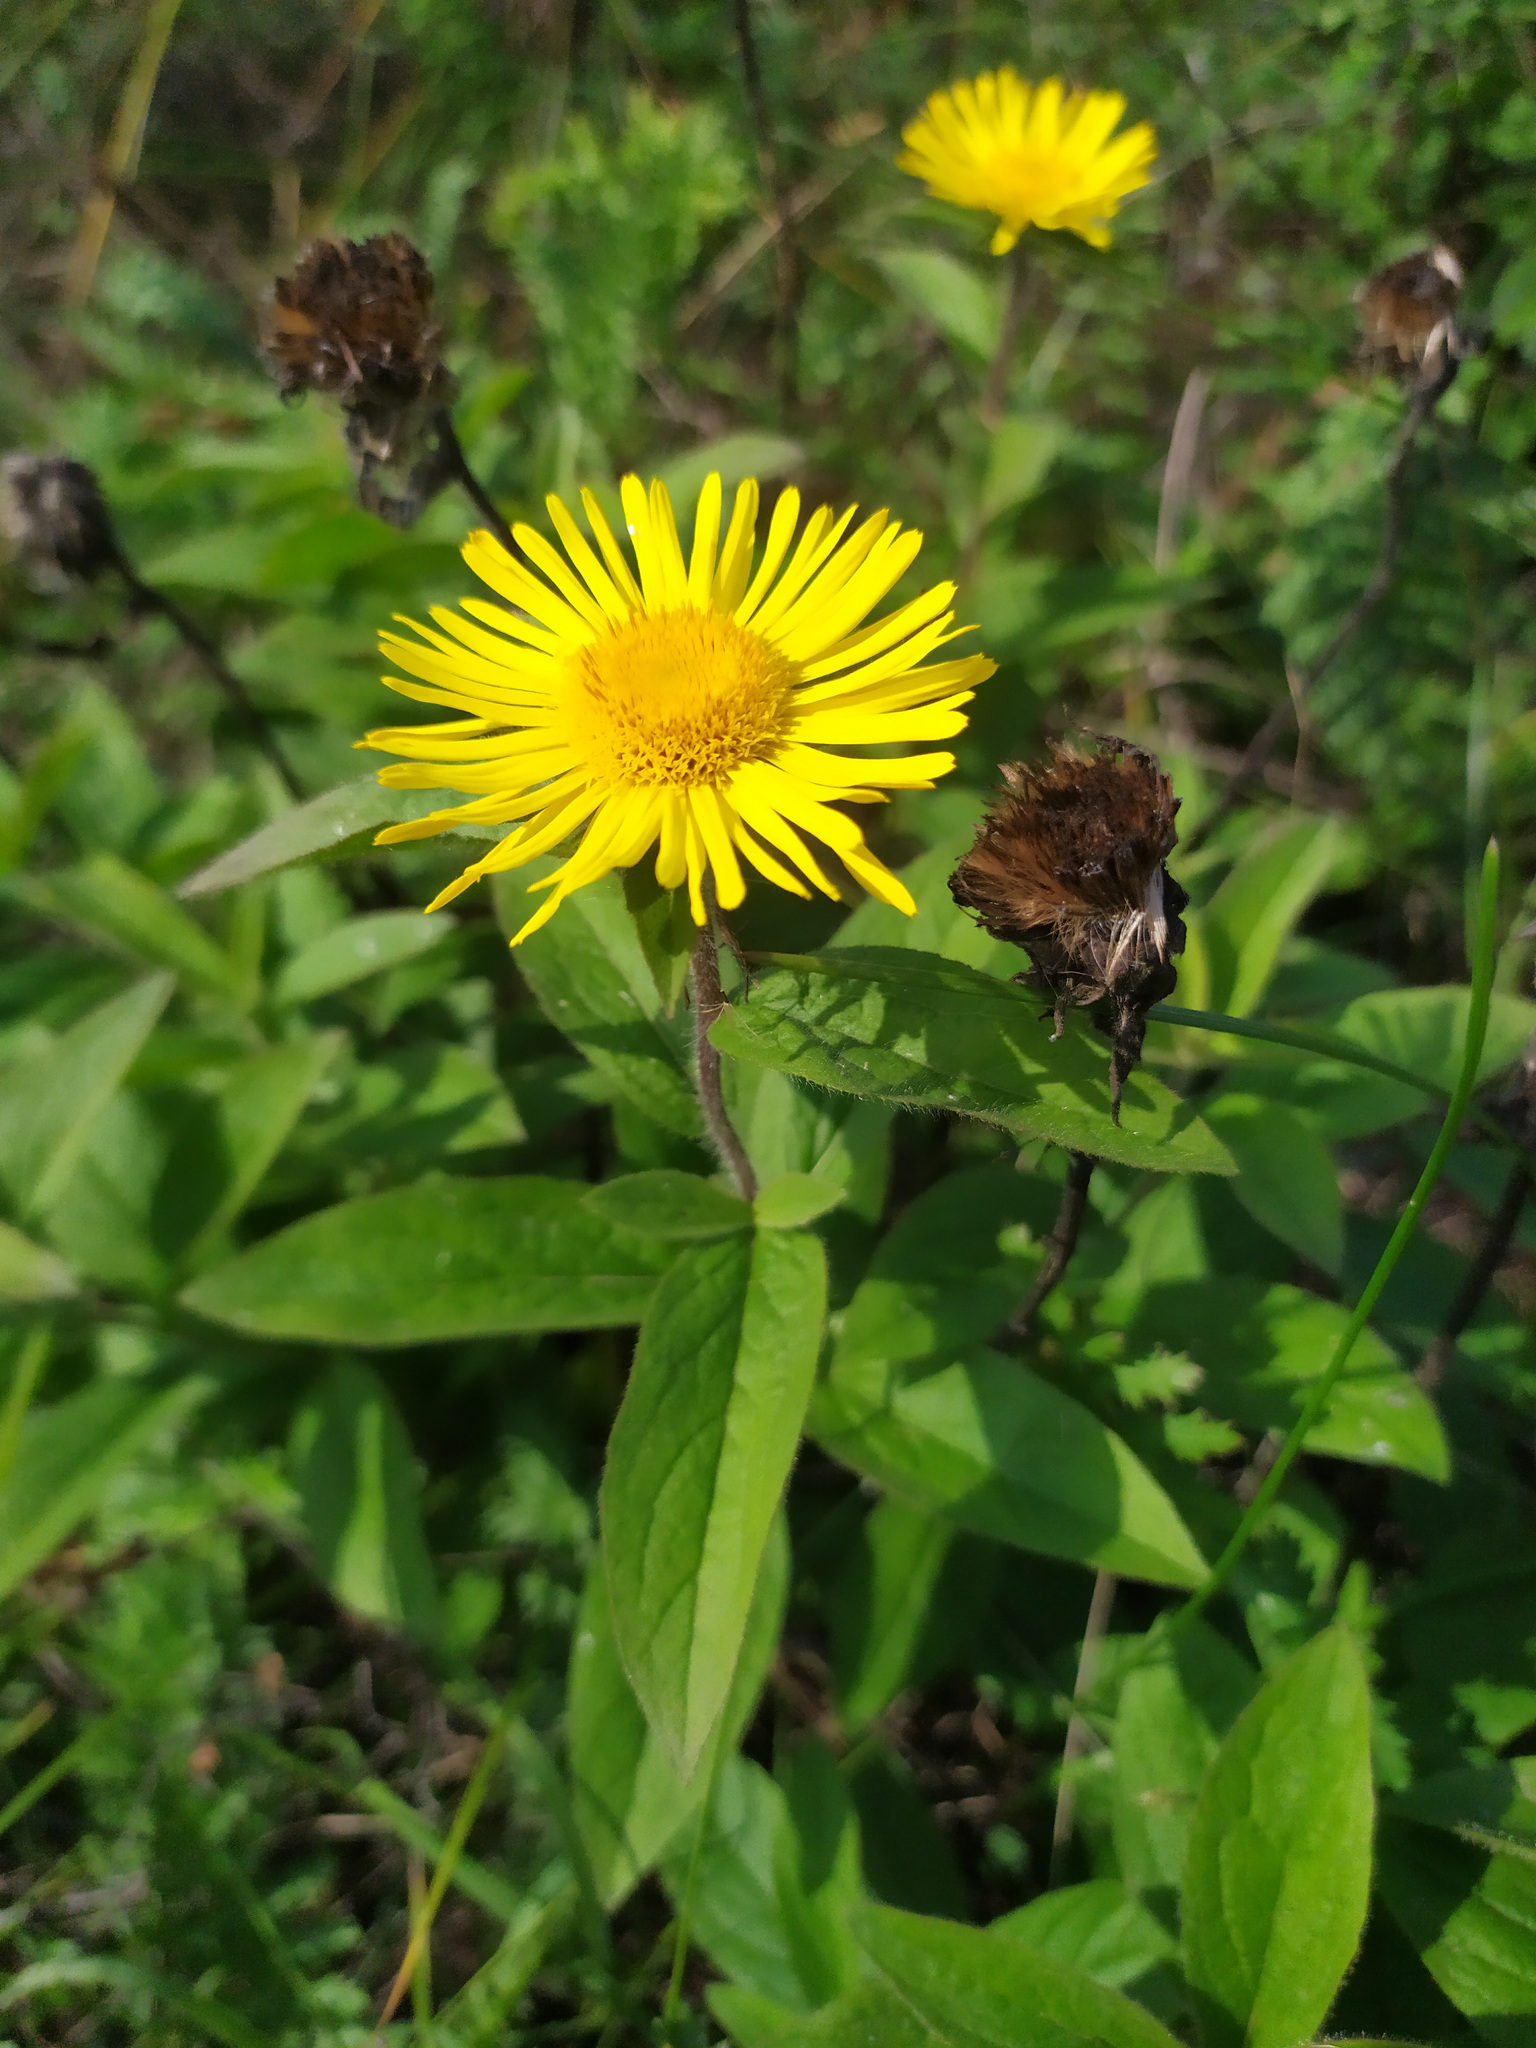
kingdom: Plantae
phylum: Tracheophyta
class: Magnoliopsida
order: Asterales
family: Asteraceae
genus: Pentanema
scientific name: Pentanema hirtum
